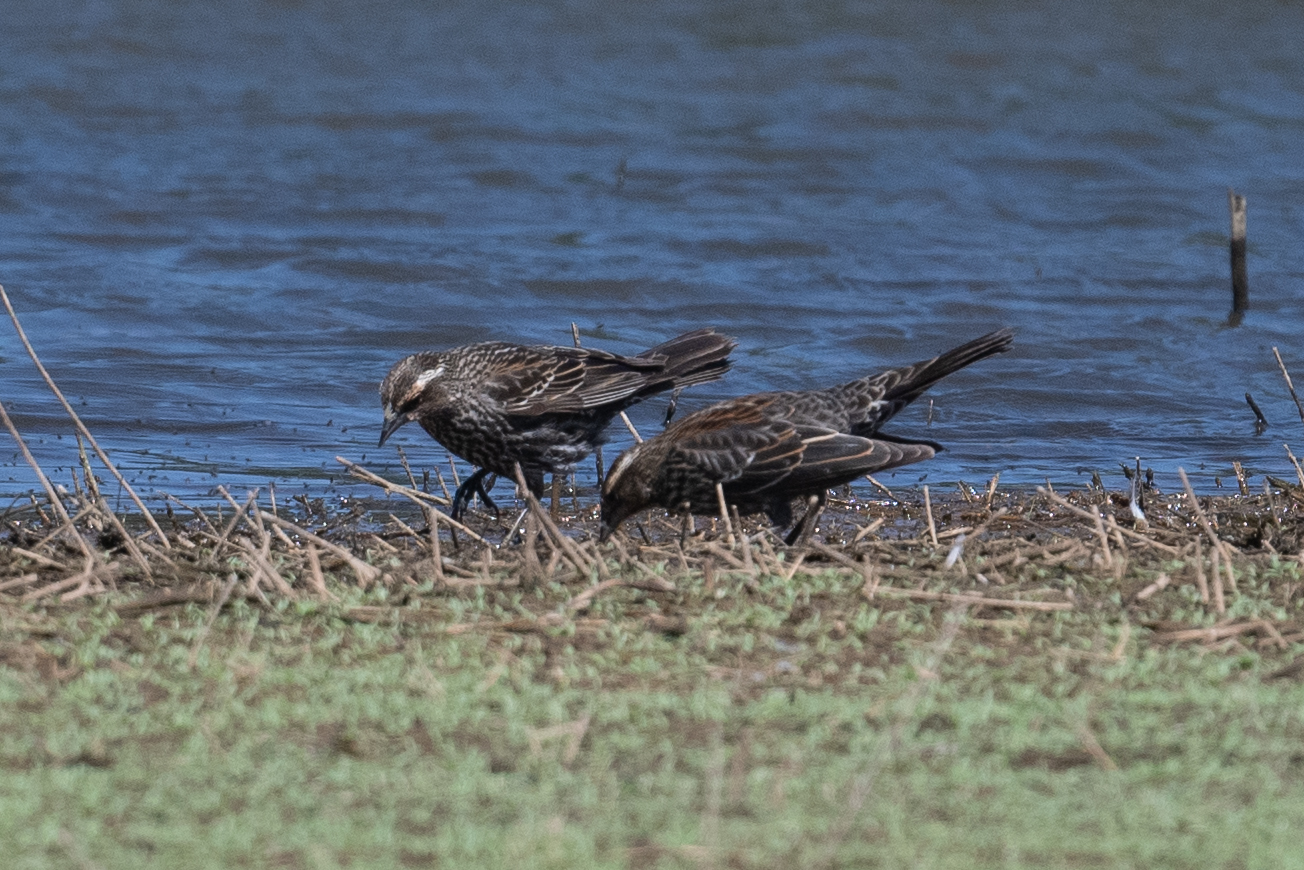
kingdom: Animalia
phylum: Chordata
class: Aves
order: Passeriformes
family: Icteridae
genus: Agelaius
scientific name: Agelaius phoeniceus
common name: Red-winged blackbird
